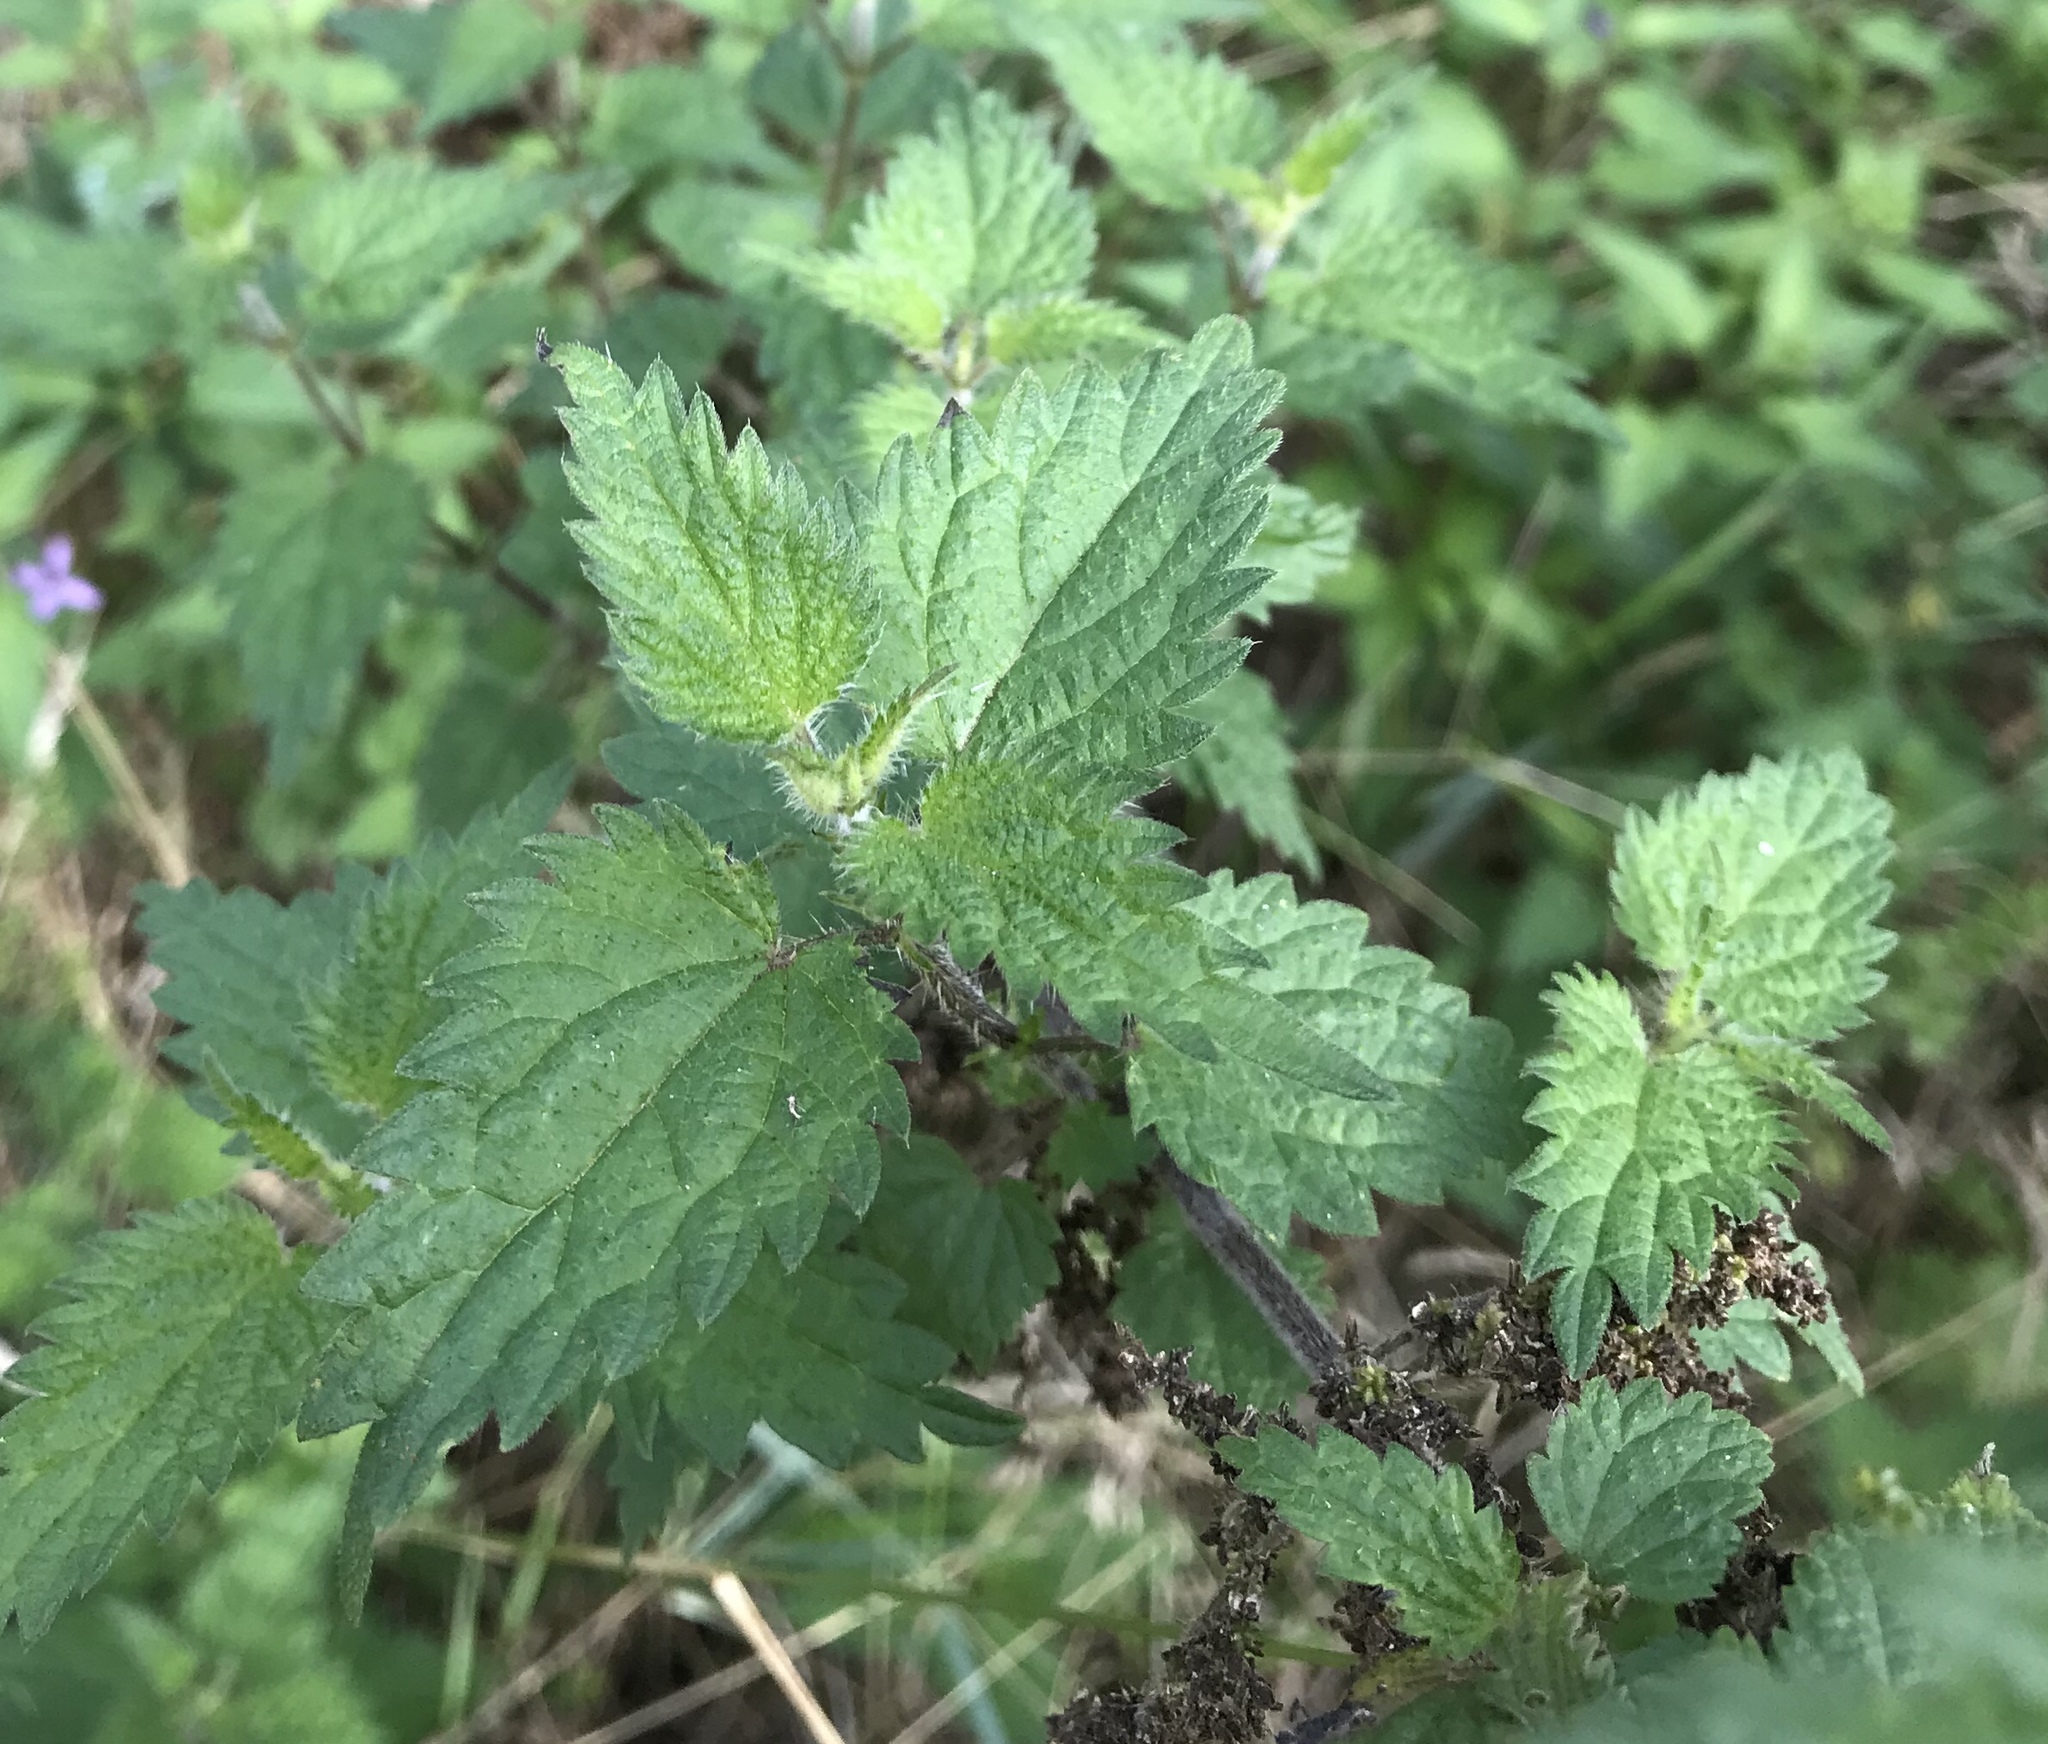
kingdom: Plantae
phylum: Tracheophyta
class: Magnoliopsida
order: Rosales
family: Urticaceae
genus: Urtica
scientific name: Urtica dioica
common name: Common nettle
